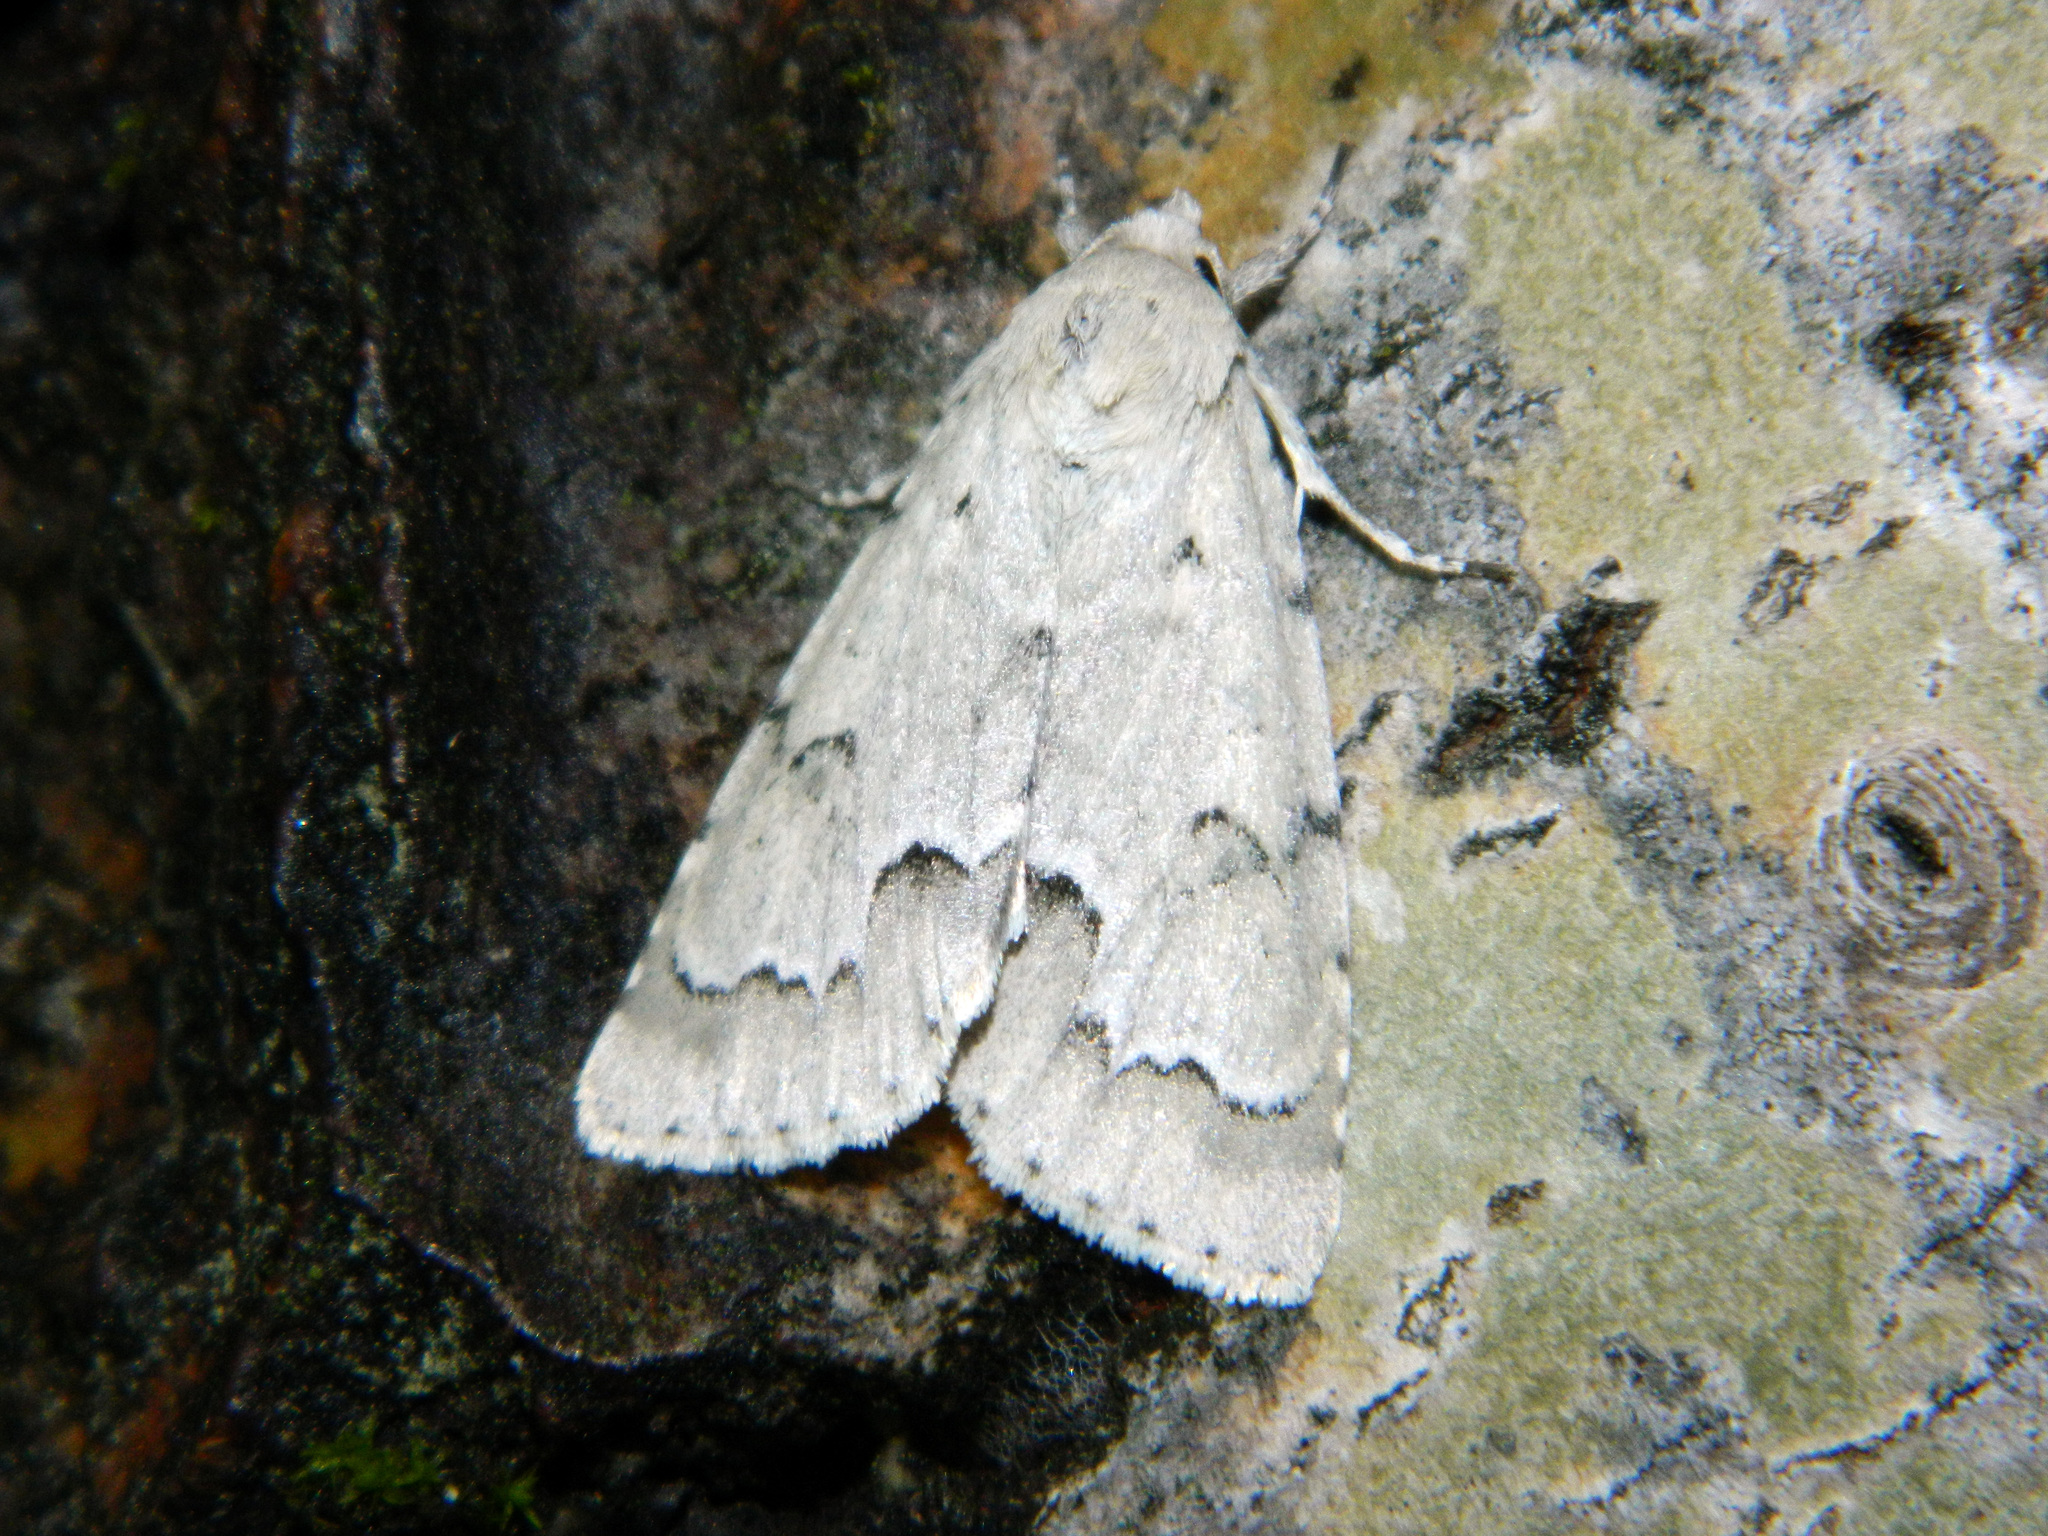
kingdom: Animalia
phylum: Arthropoda
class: Insecta
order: Lepidoptera
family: Noctuidae
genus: Acronicta
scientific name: Acronicta innotata
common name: Unmarked dagger
